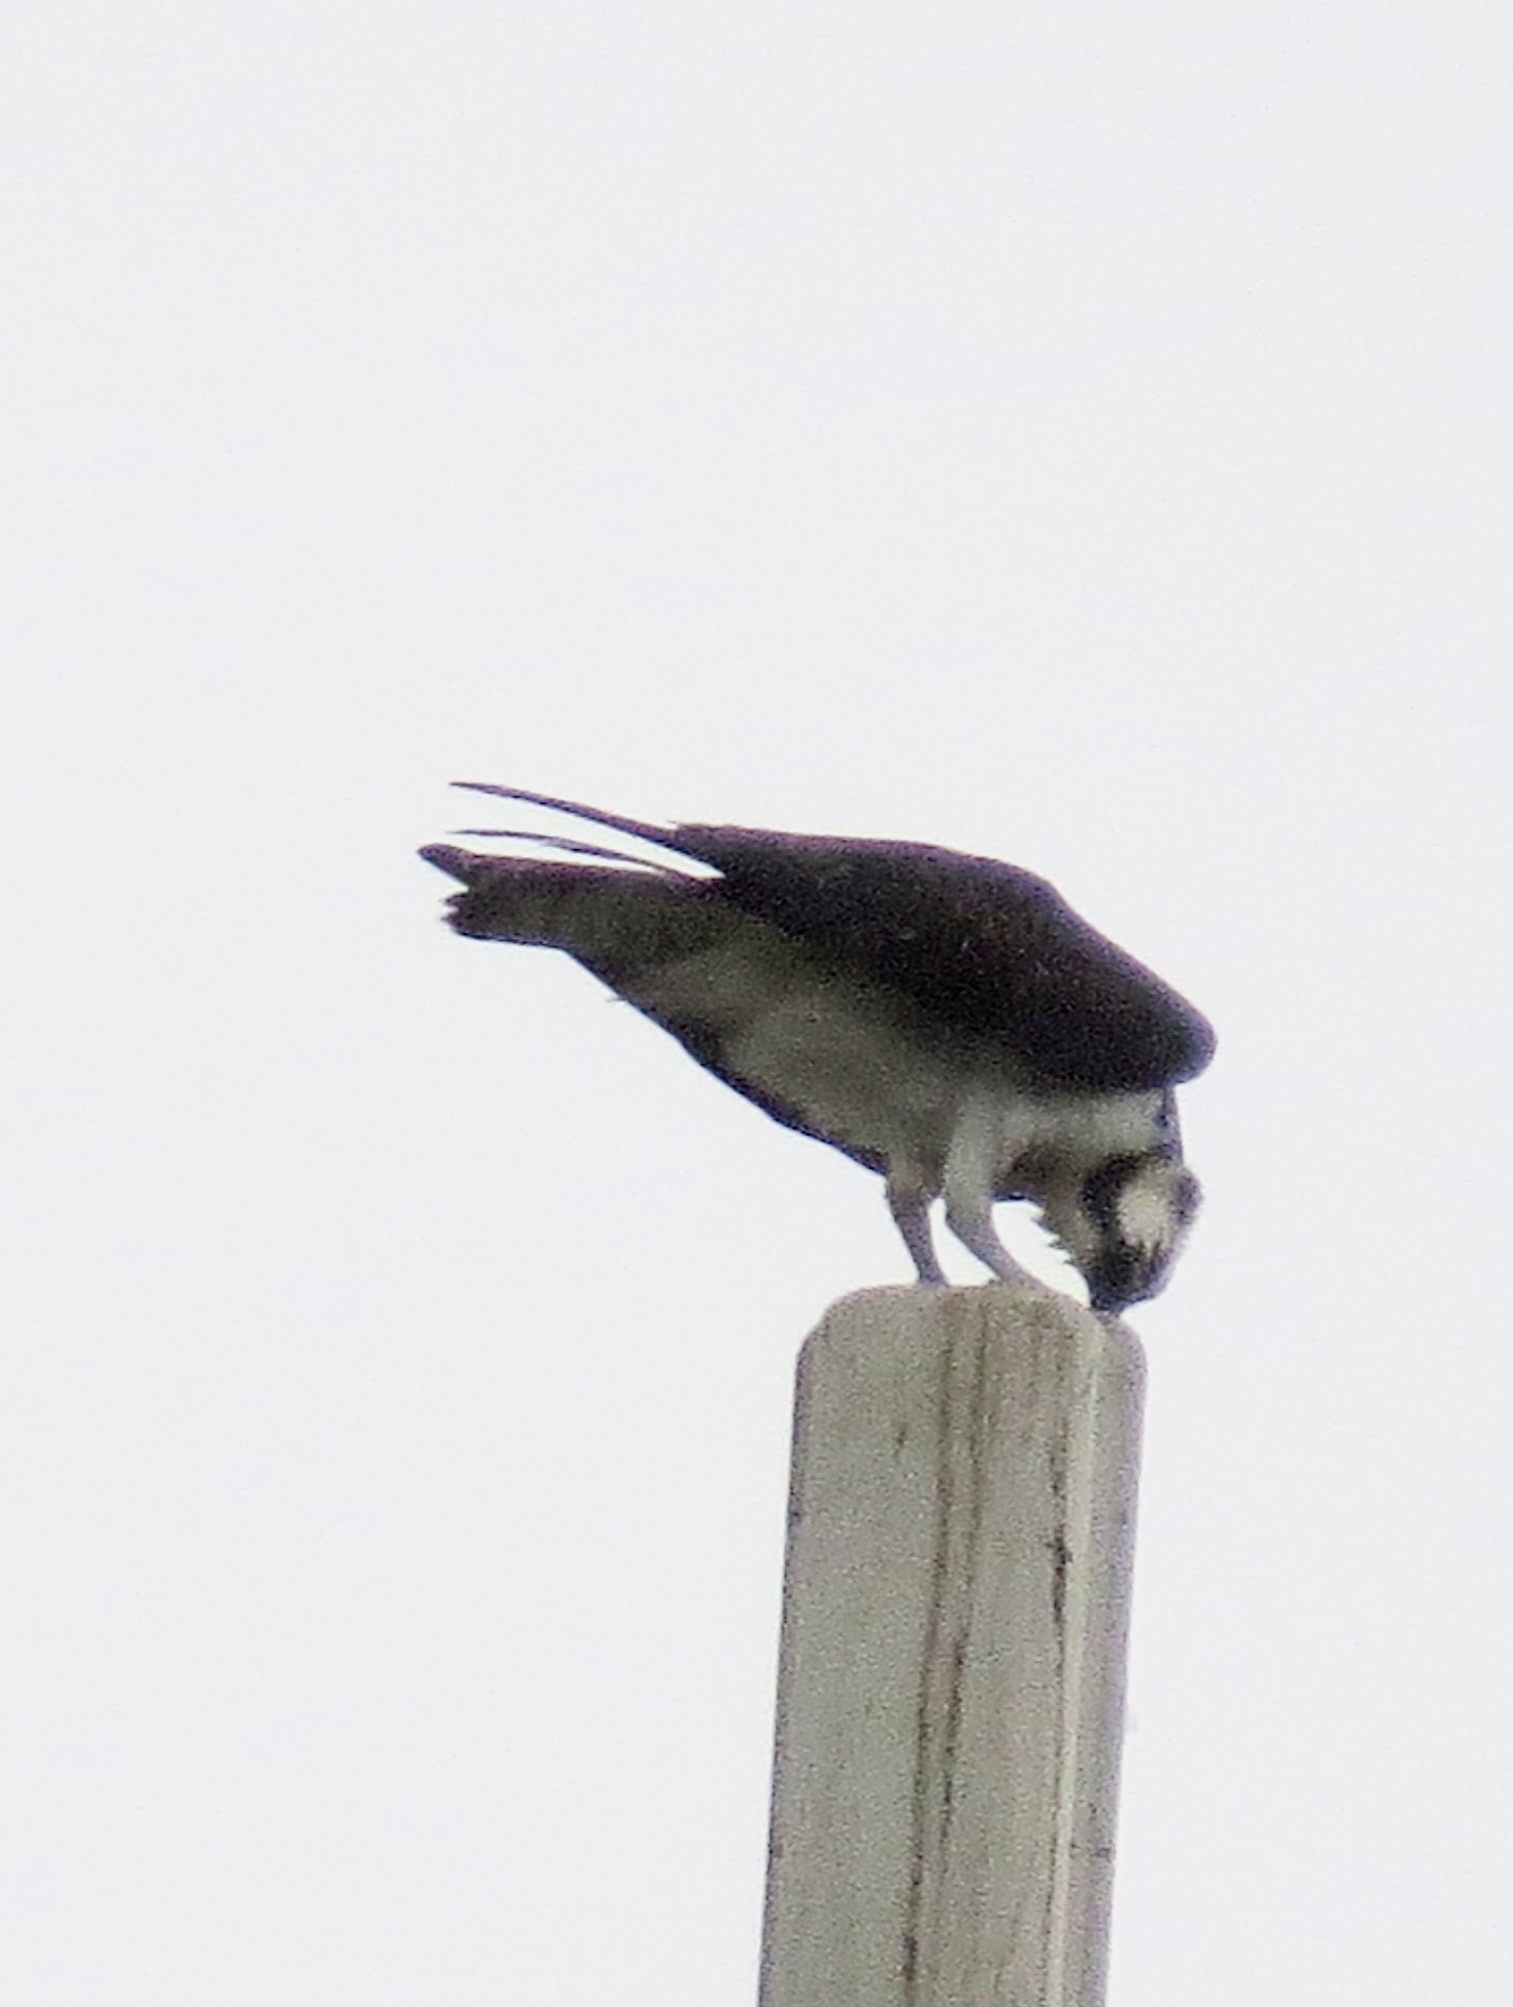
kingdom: Animalia
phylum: Chordata
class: Aves
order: Accipitriformes
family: Pandionidae
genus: Pandion
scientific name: Pandion haliaetus
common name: Osprey
